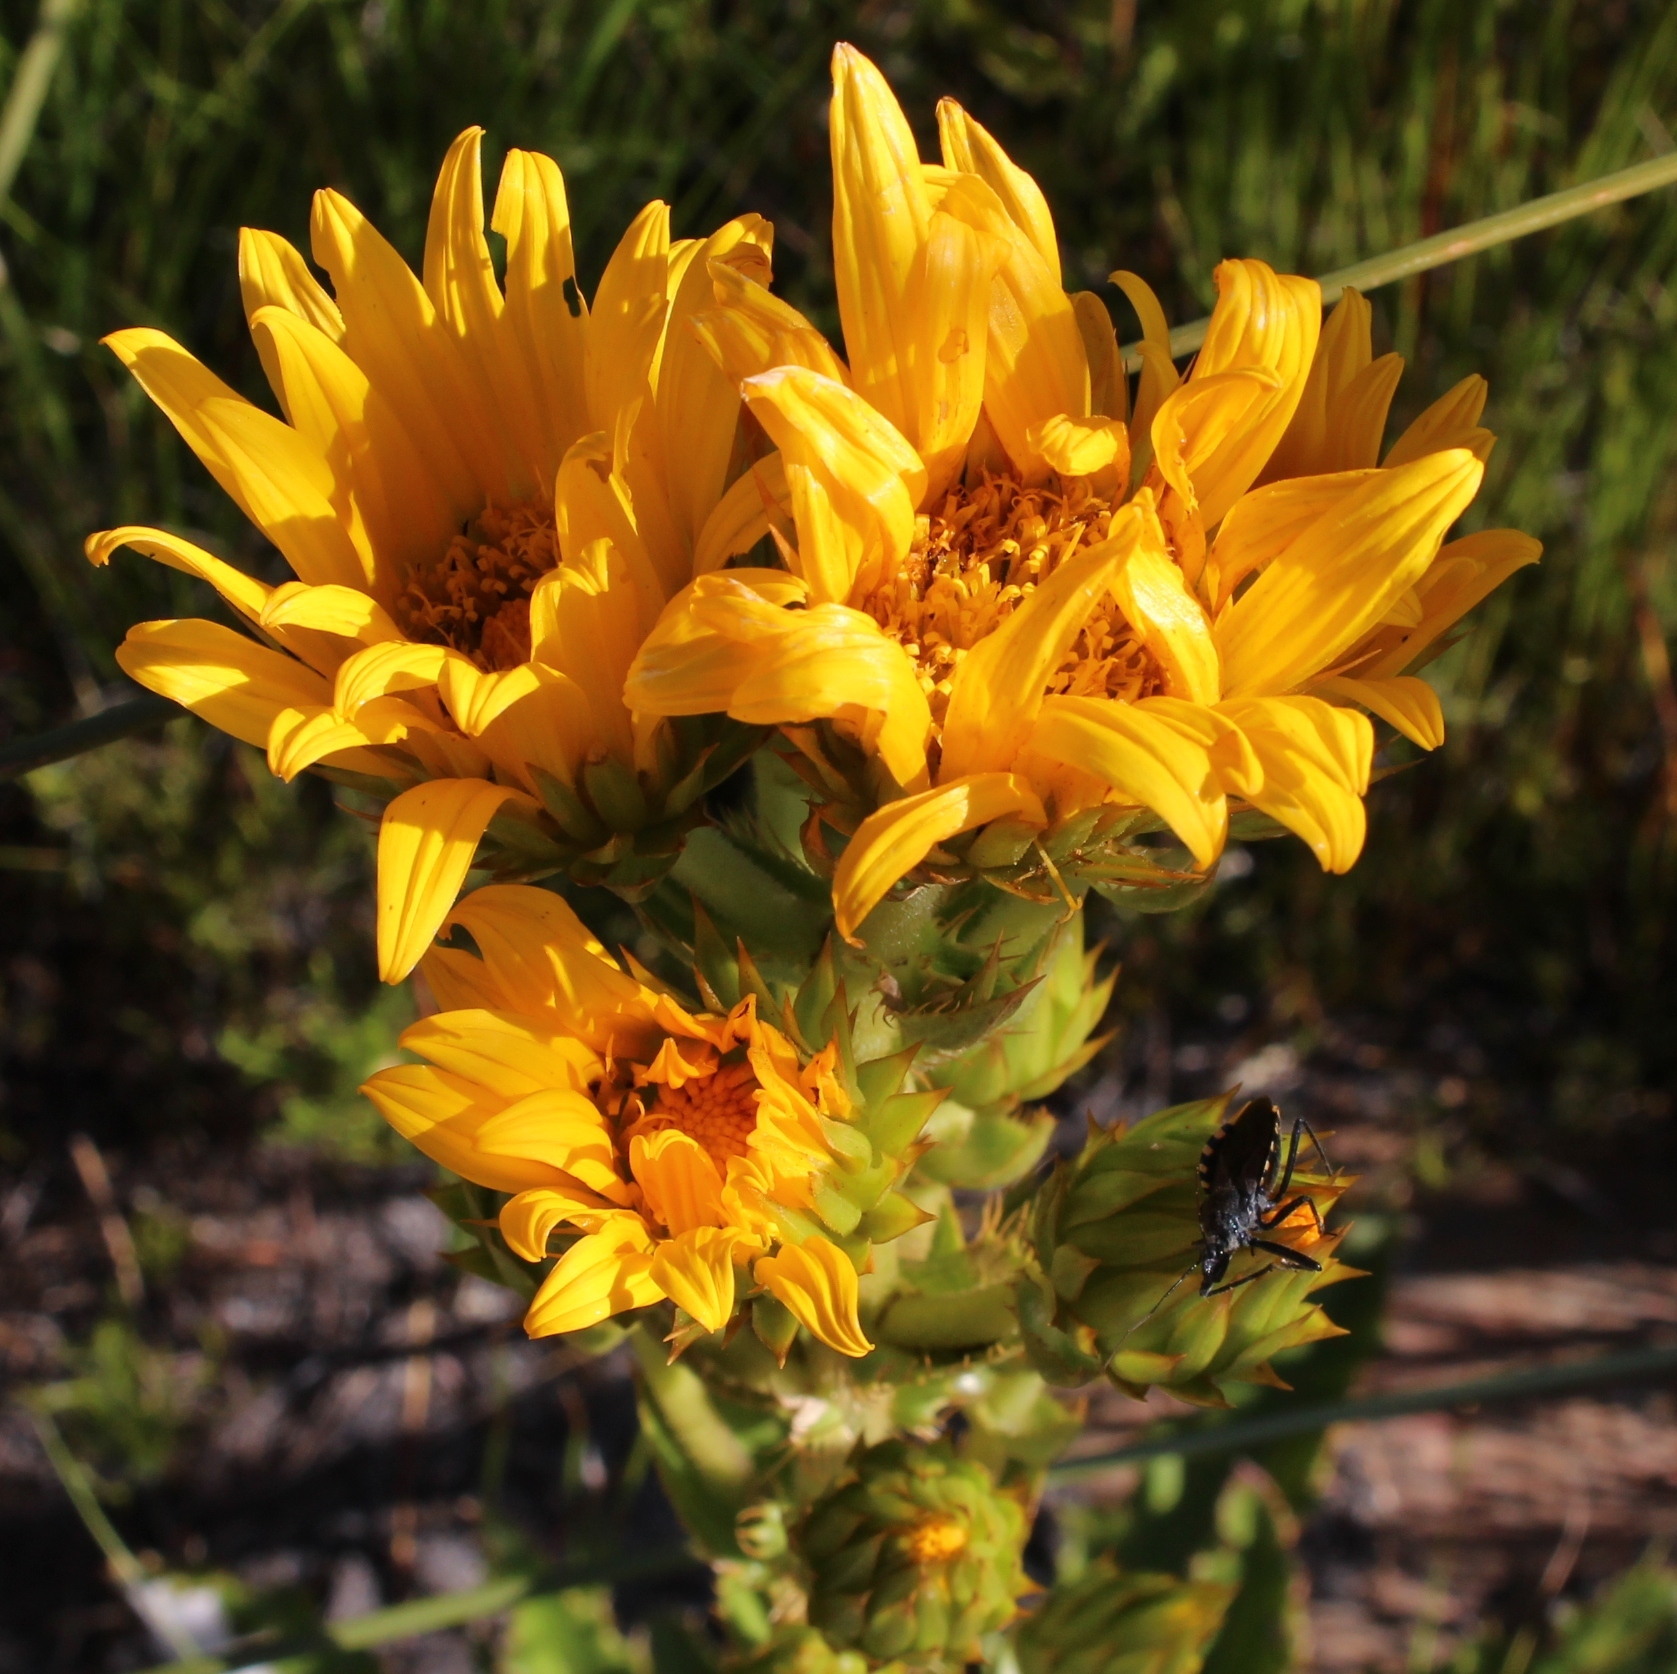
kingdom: Plantae
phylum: Tracheophyta
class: Magnoliopsida
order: Asterales
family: Asteraceae
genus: Berkheya
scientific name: Berkheya herbacea
